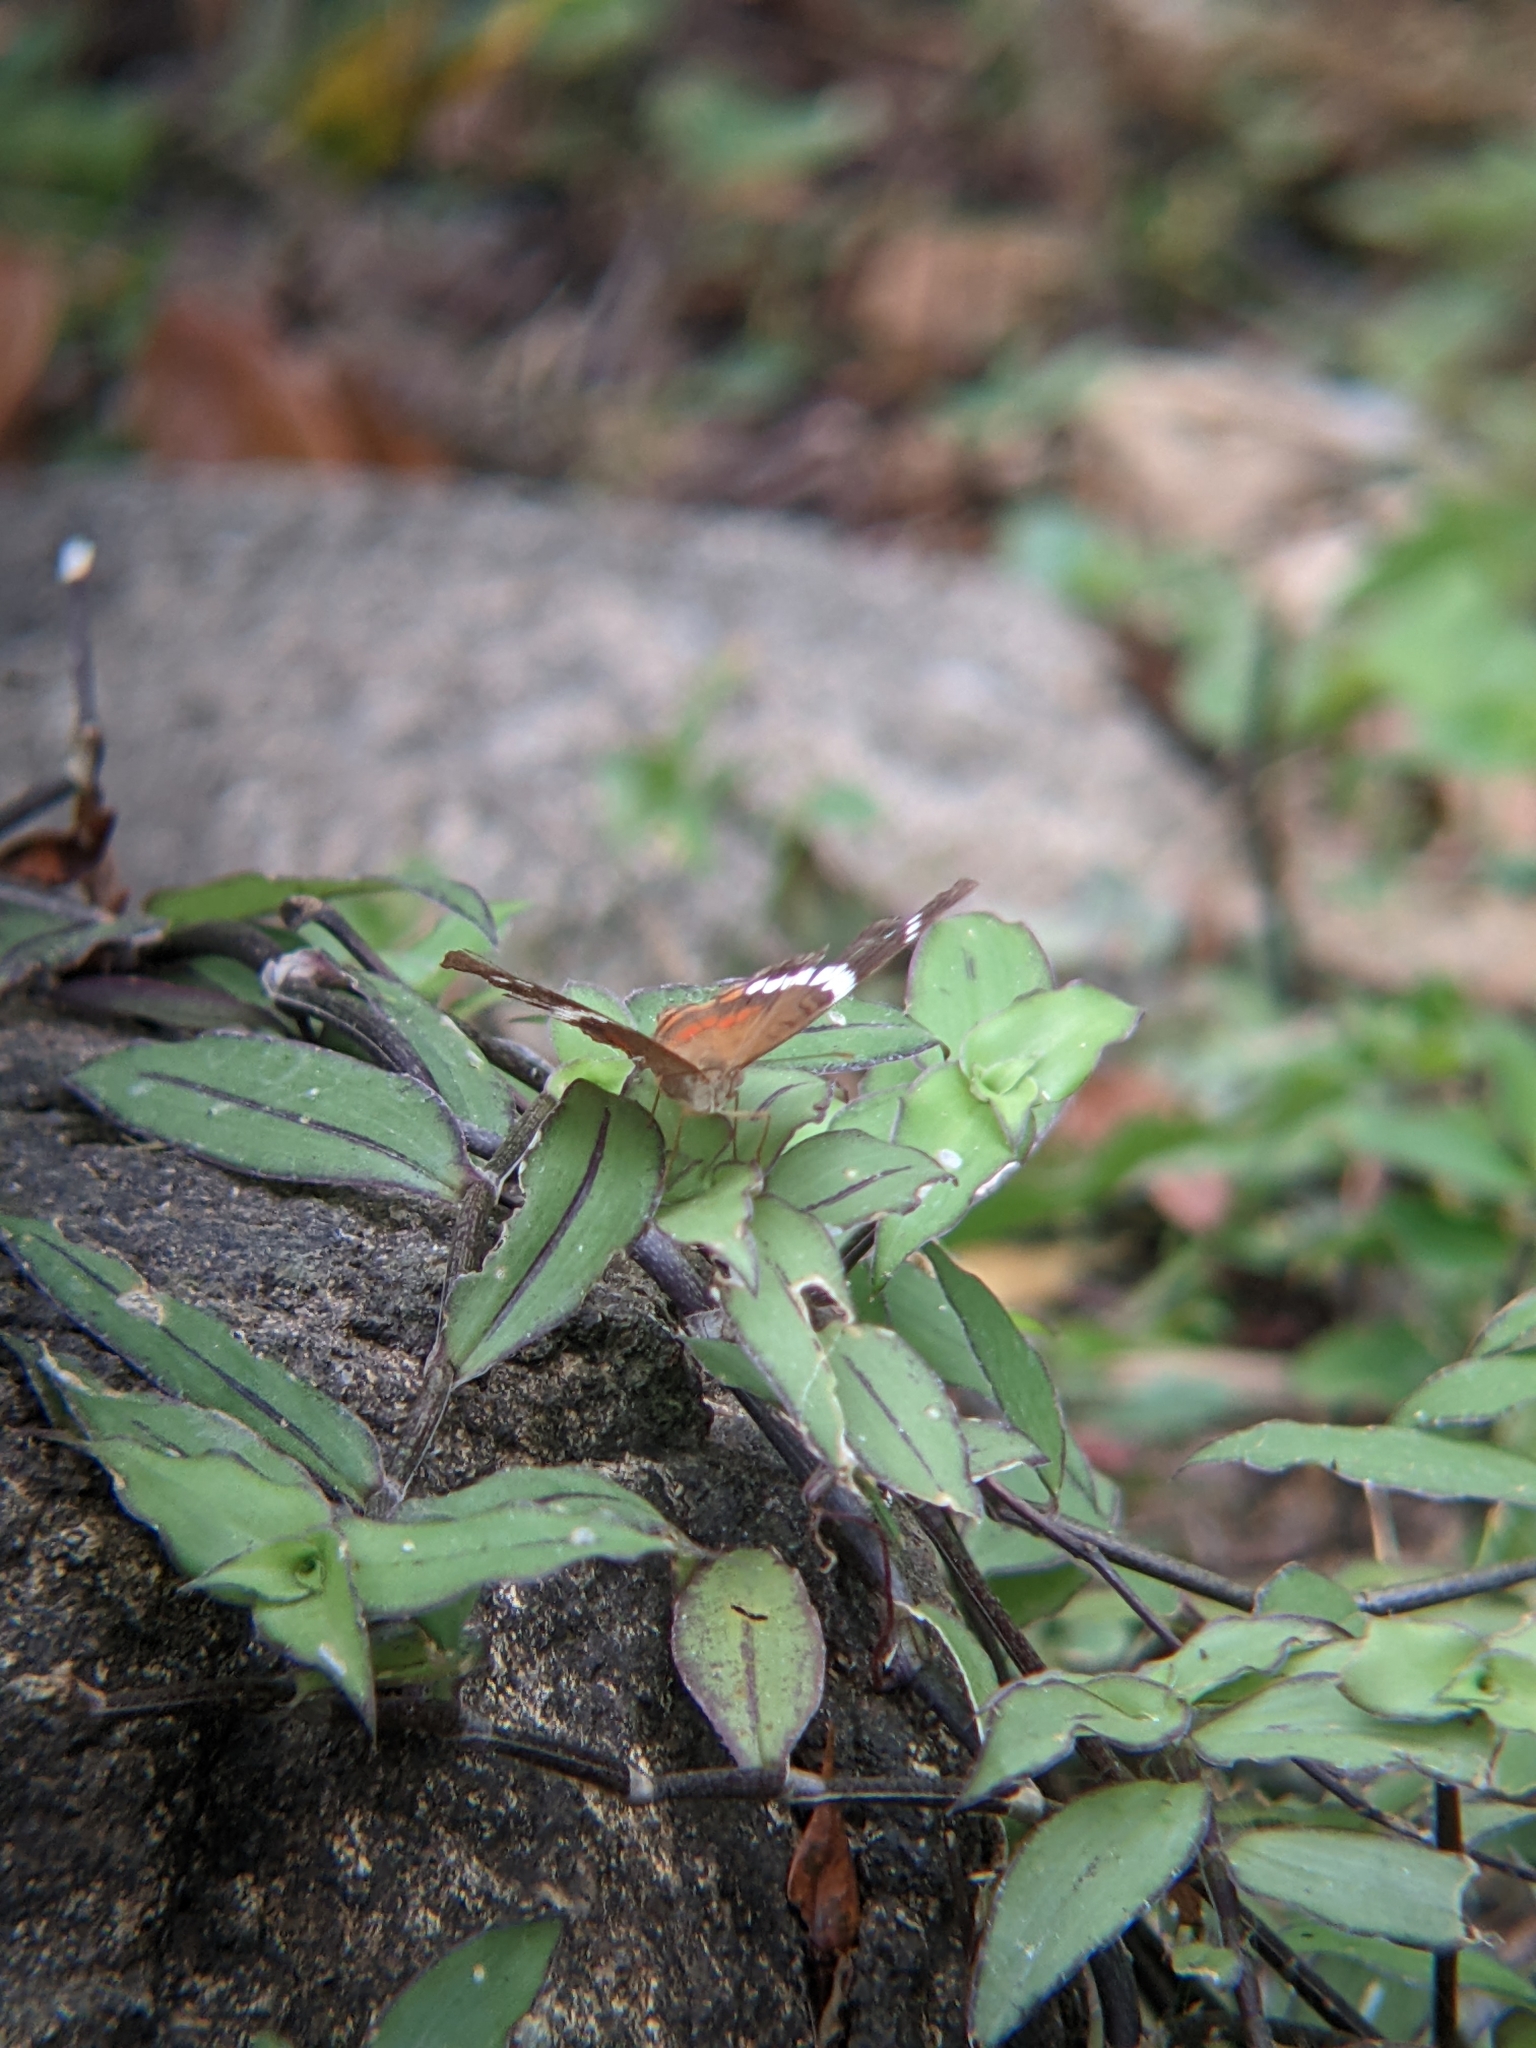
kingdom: Animalia
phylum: Arthropoda
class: Insecta
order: Lepidoptera
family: Nymphalidae
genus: Anartia
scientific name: Anartia fatima
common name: Banded peacock
